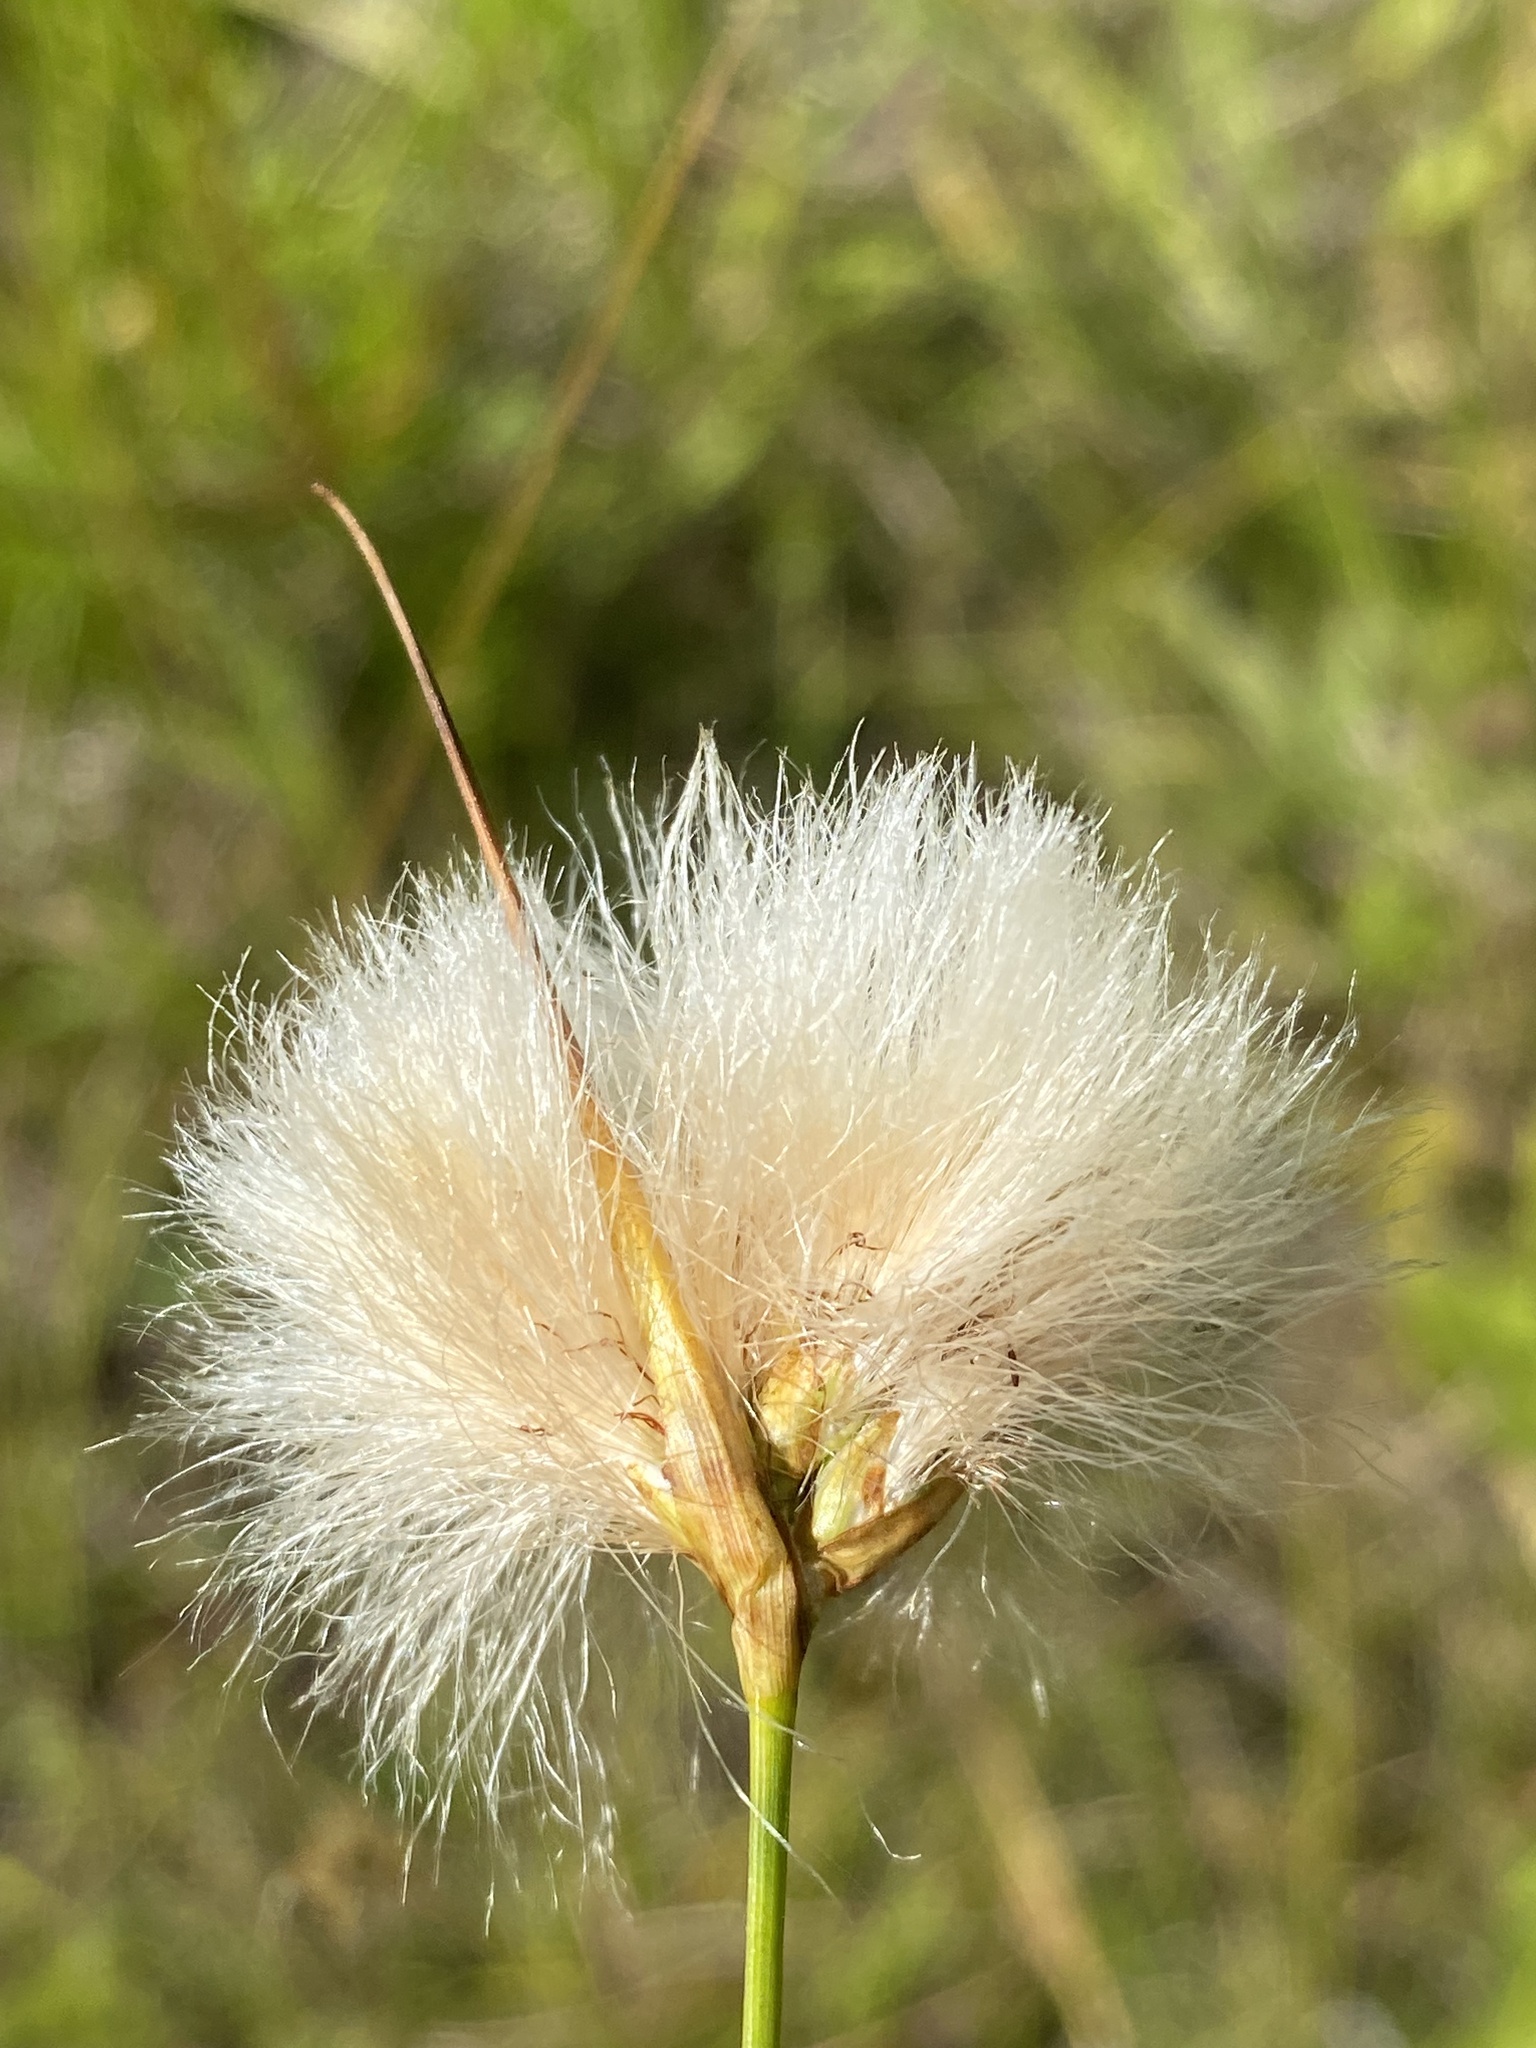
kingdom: Plantae
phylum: Tracheophyta
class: Liliopsida
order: Poales
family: Cyperaceae
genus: Eriophorum
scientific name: Eriophorum virginicum
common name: Tawny cottongrass
